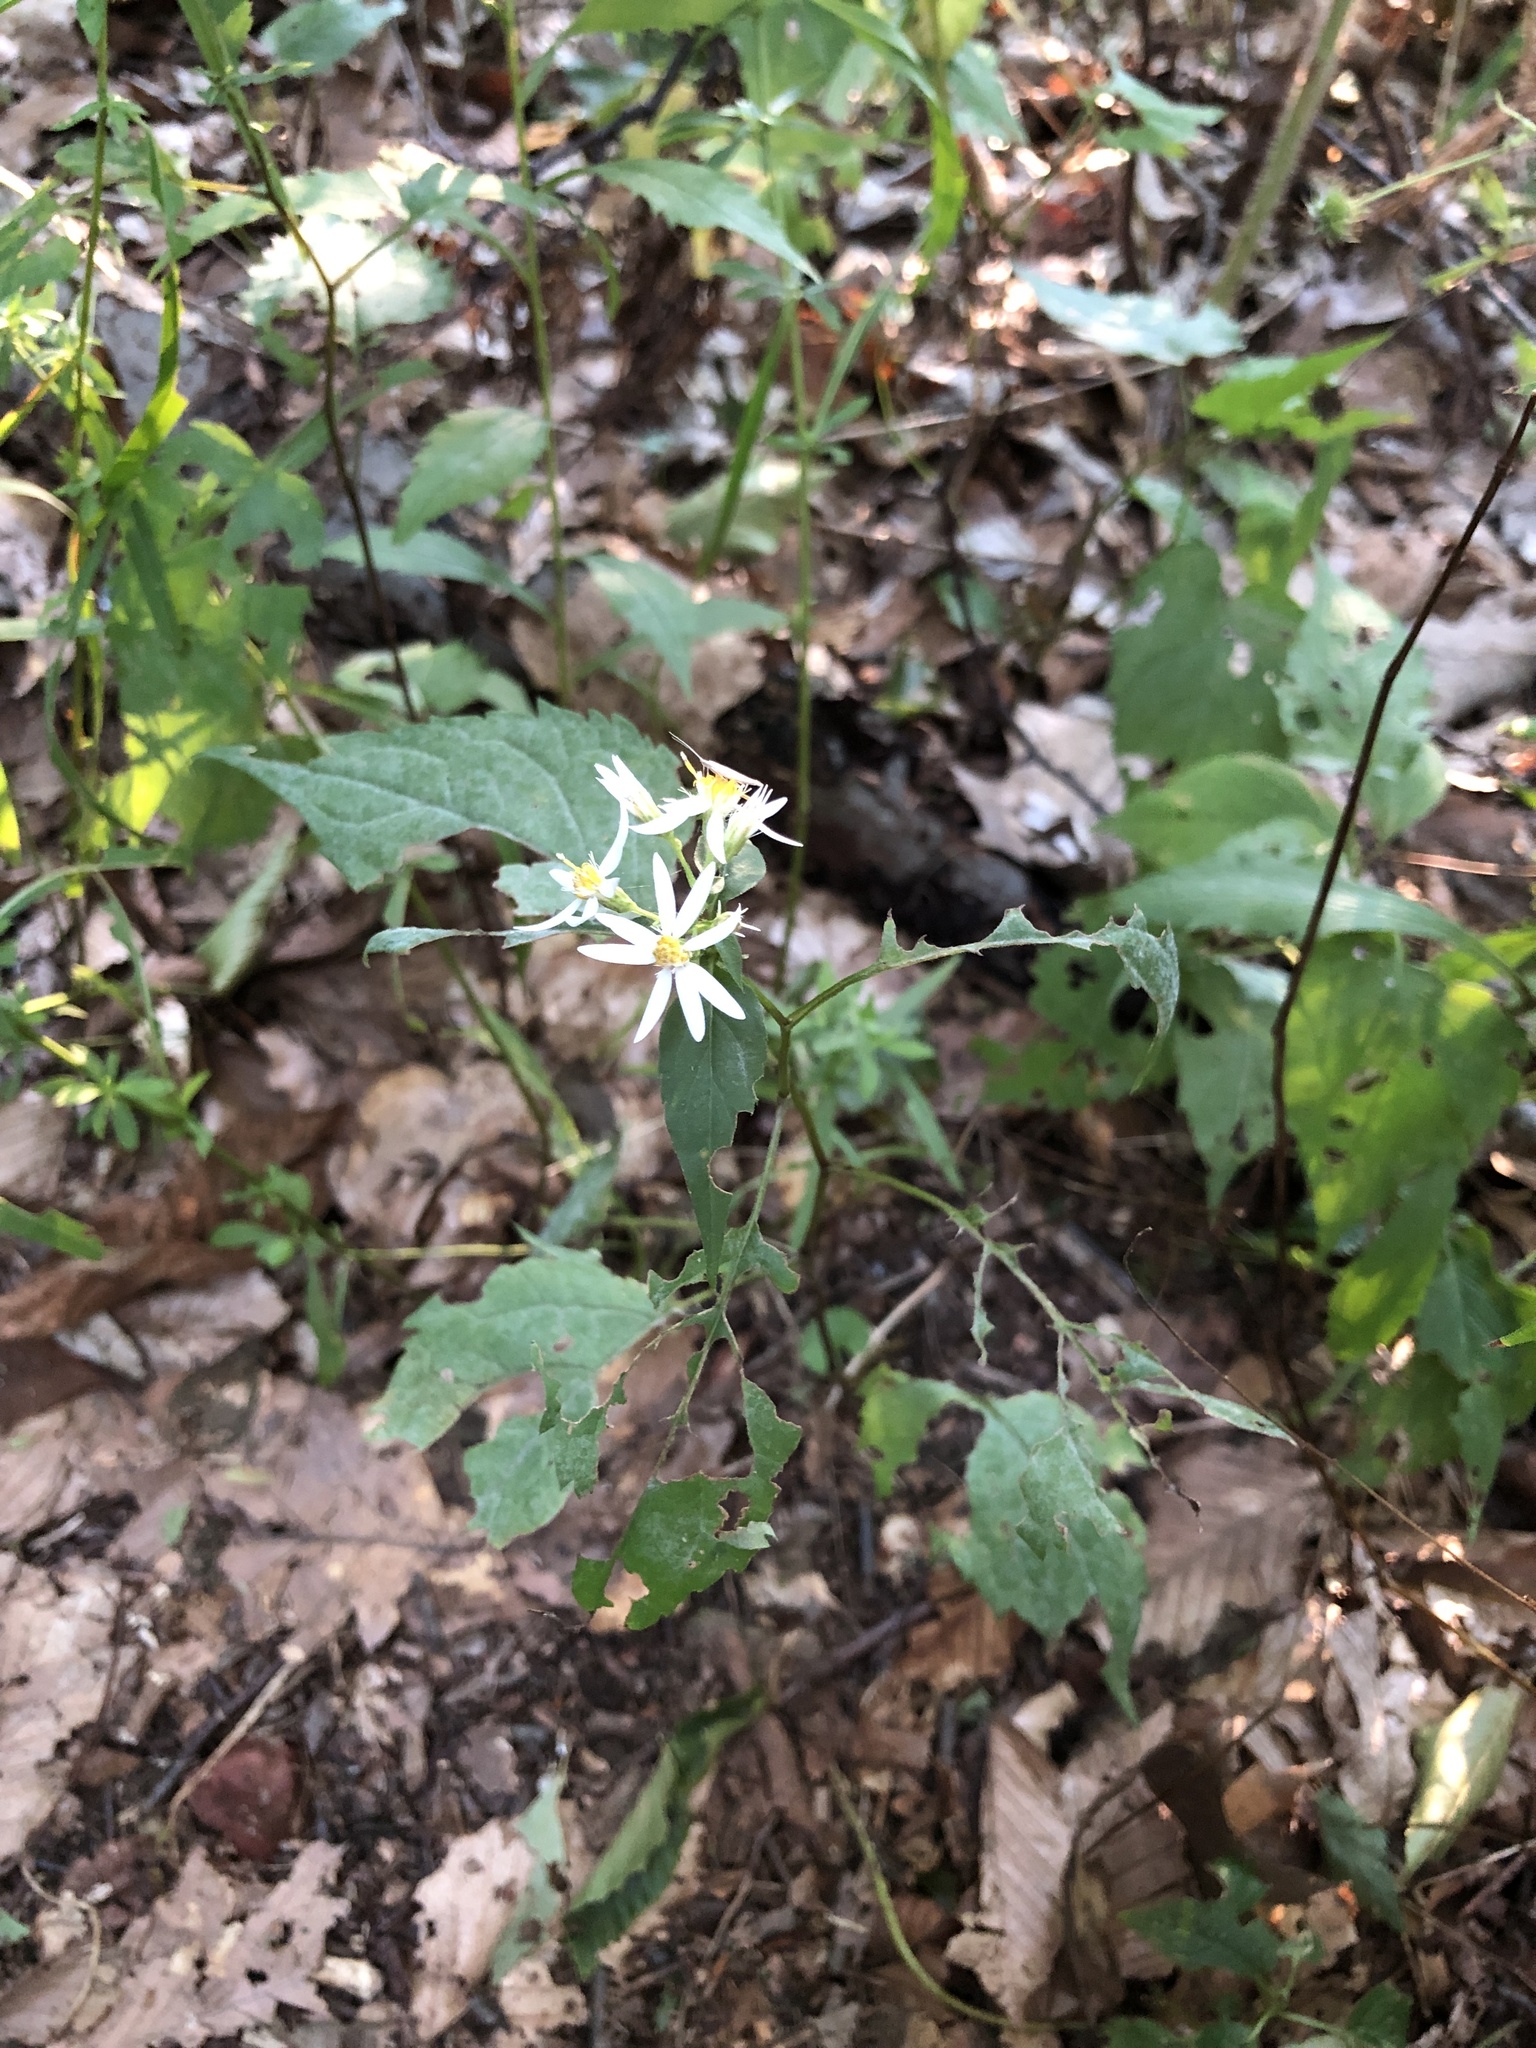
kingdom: Plantae
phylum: Tracheophyta
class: Magnoliopsida
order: Asterales
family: Asteraceae
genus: Eurybia
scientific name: Eurybia divaricata
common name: White wood aster
